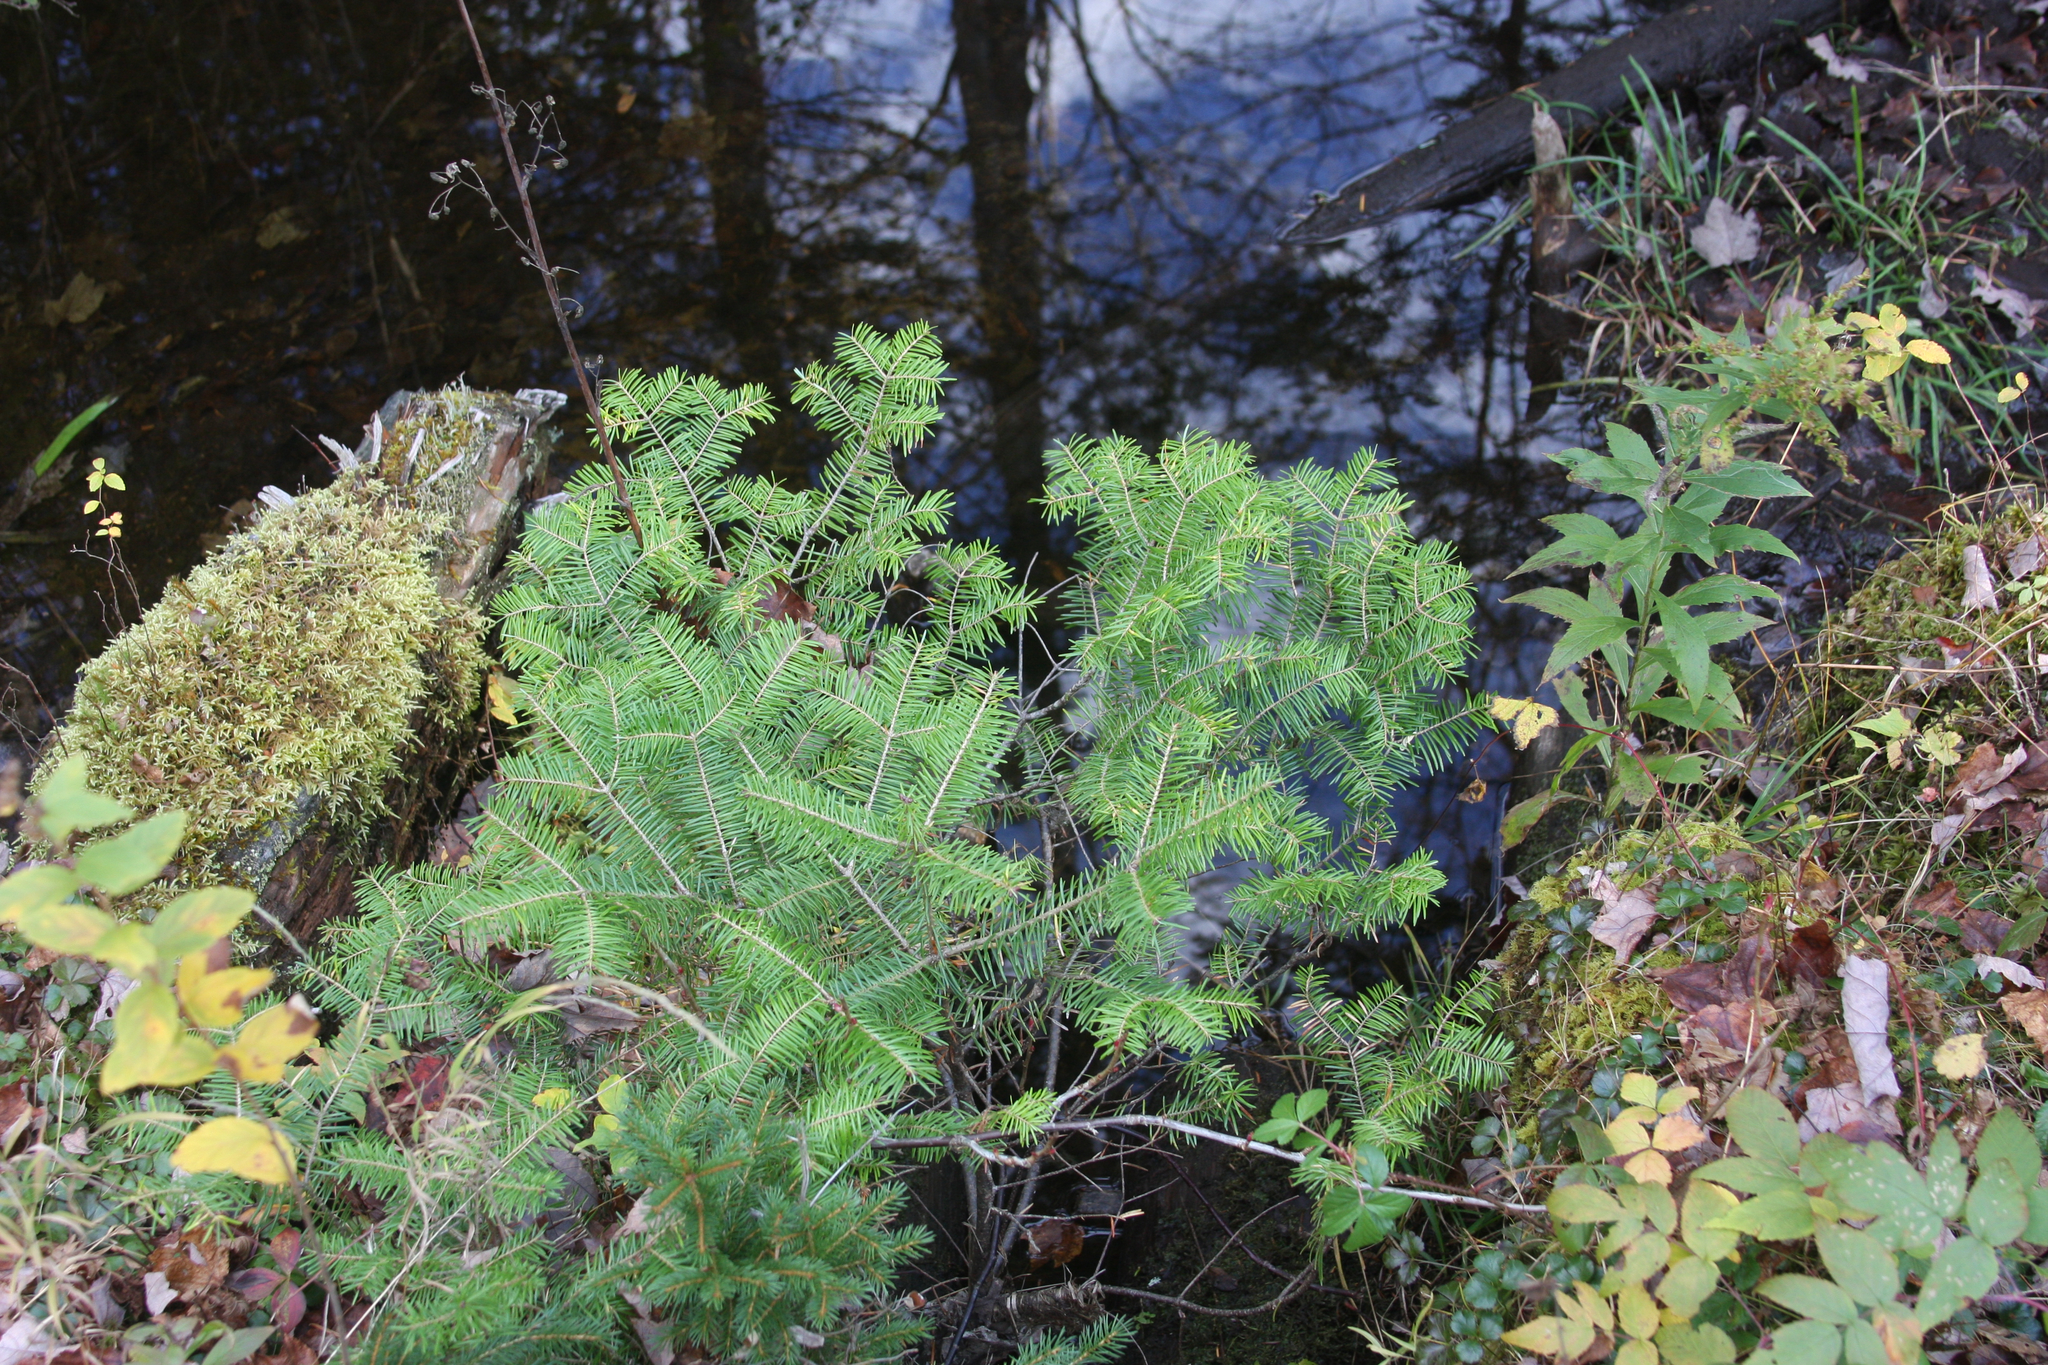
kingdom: Plantae
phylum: Tracheophyta
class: Pinopsida
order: Pinales
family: Pinaceae
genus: Abies
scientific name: Abies balsamea
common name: Balsam fir
